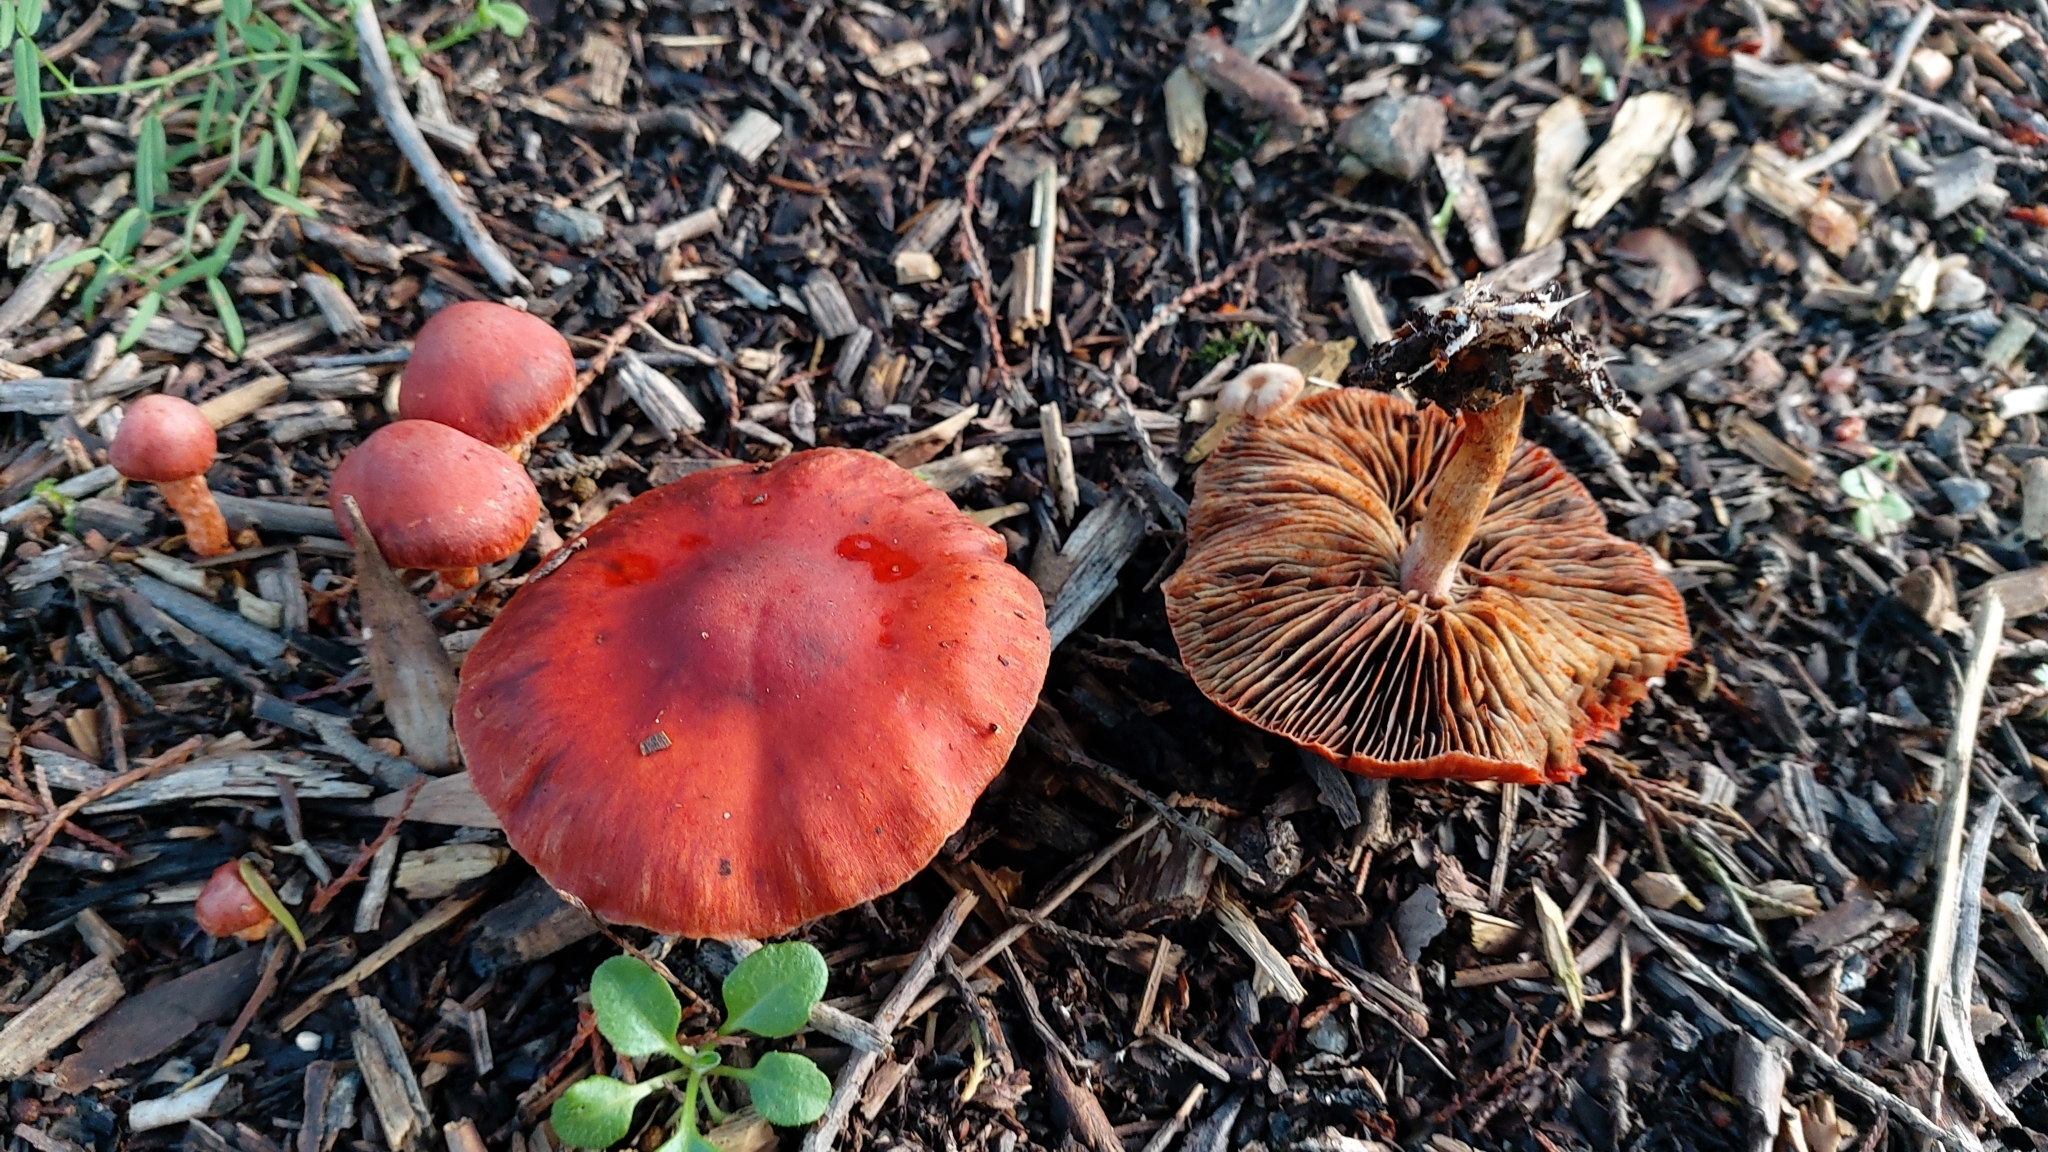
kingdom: Fungi
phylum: Basidiomycota
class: Agaricomycetes
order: Agaricales
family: Strophariaceae
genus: Leratiomyces
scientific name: Leratiomyces ceres
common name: Redlead roundhead
